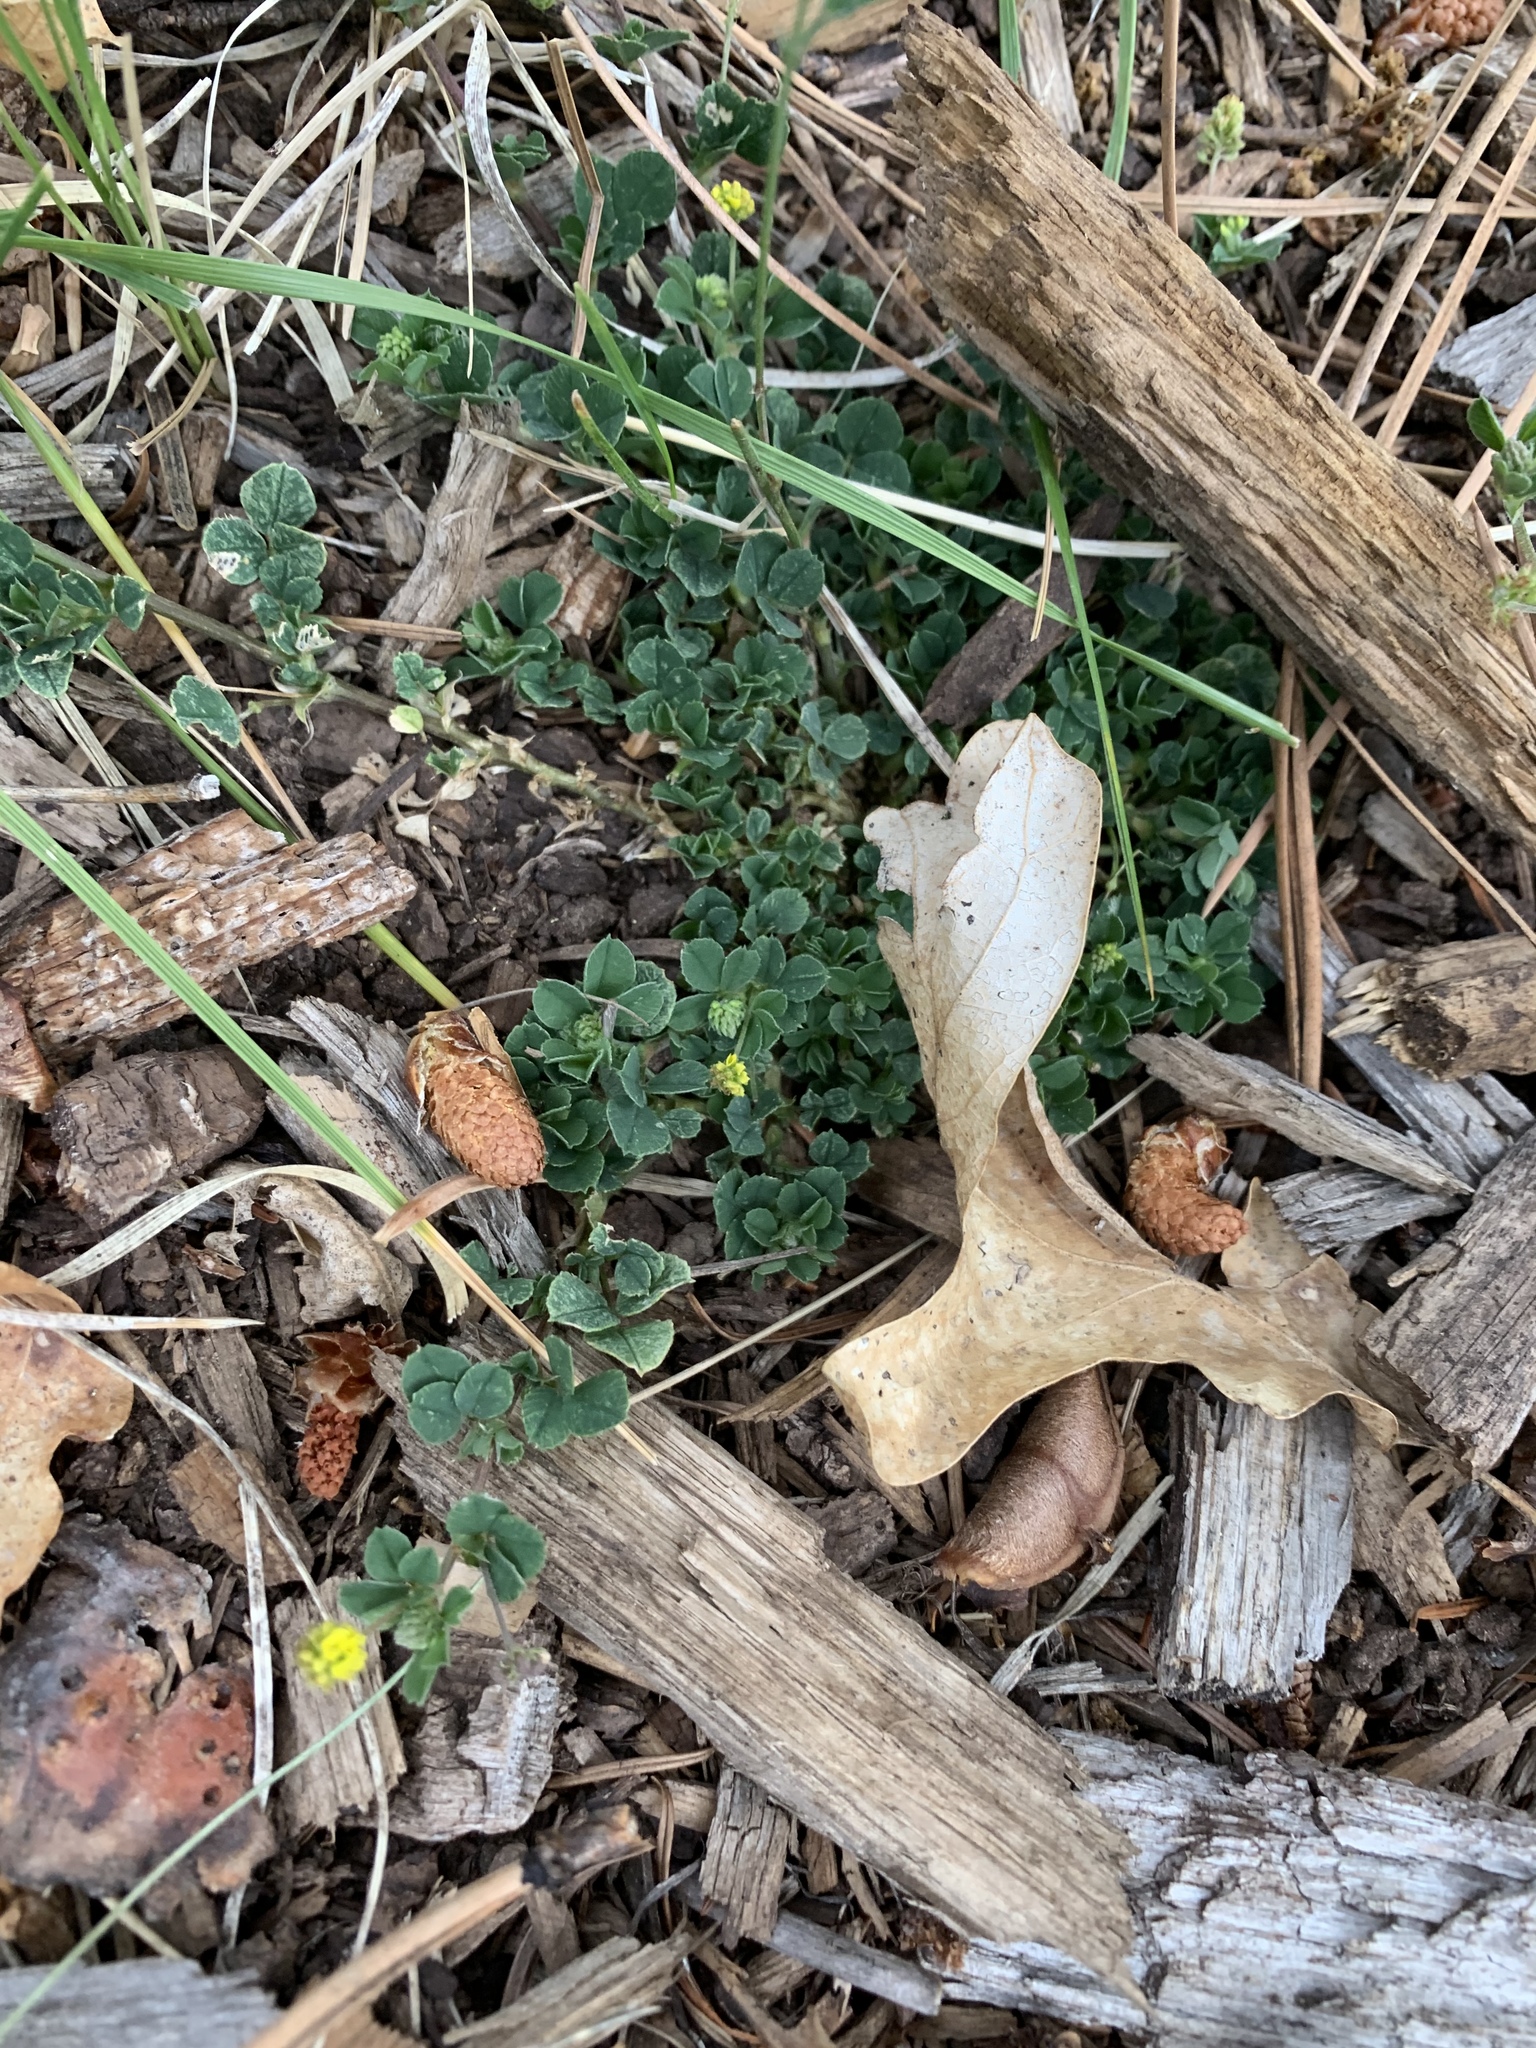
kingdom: Plantae
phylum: Tracheophyta
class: Magnoliopsida
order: Fabales
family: Fabaceae
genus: Medicago
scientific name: Medicago lupulina
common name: Black medick
